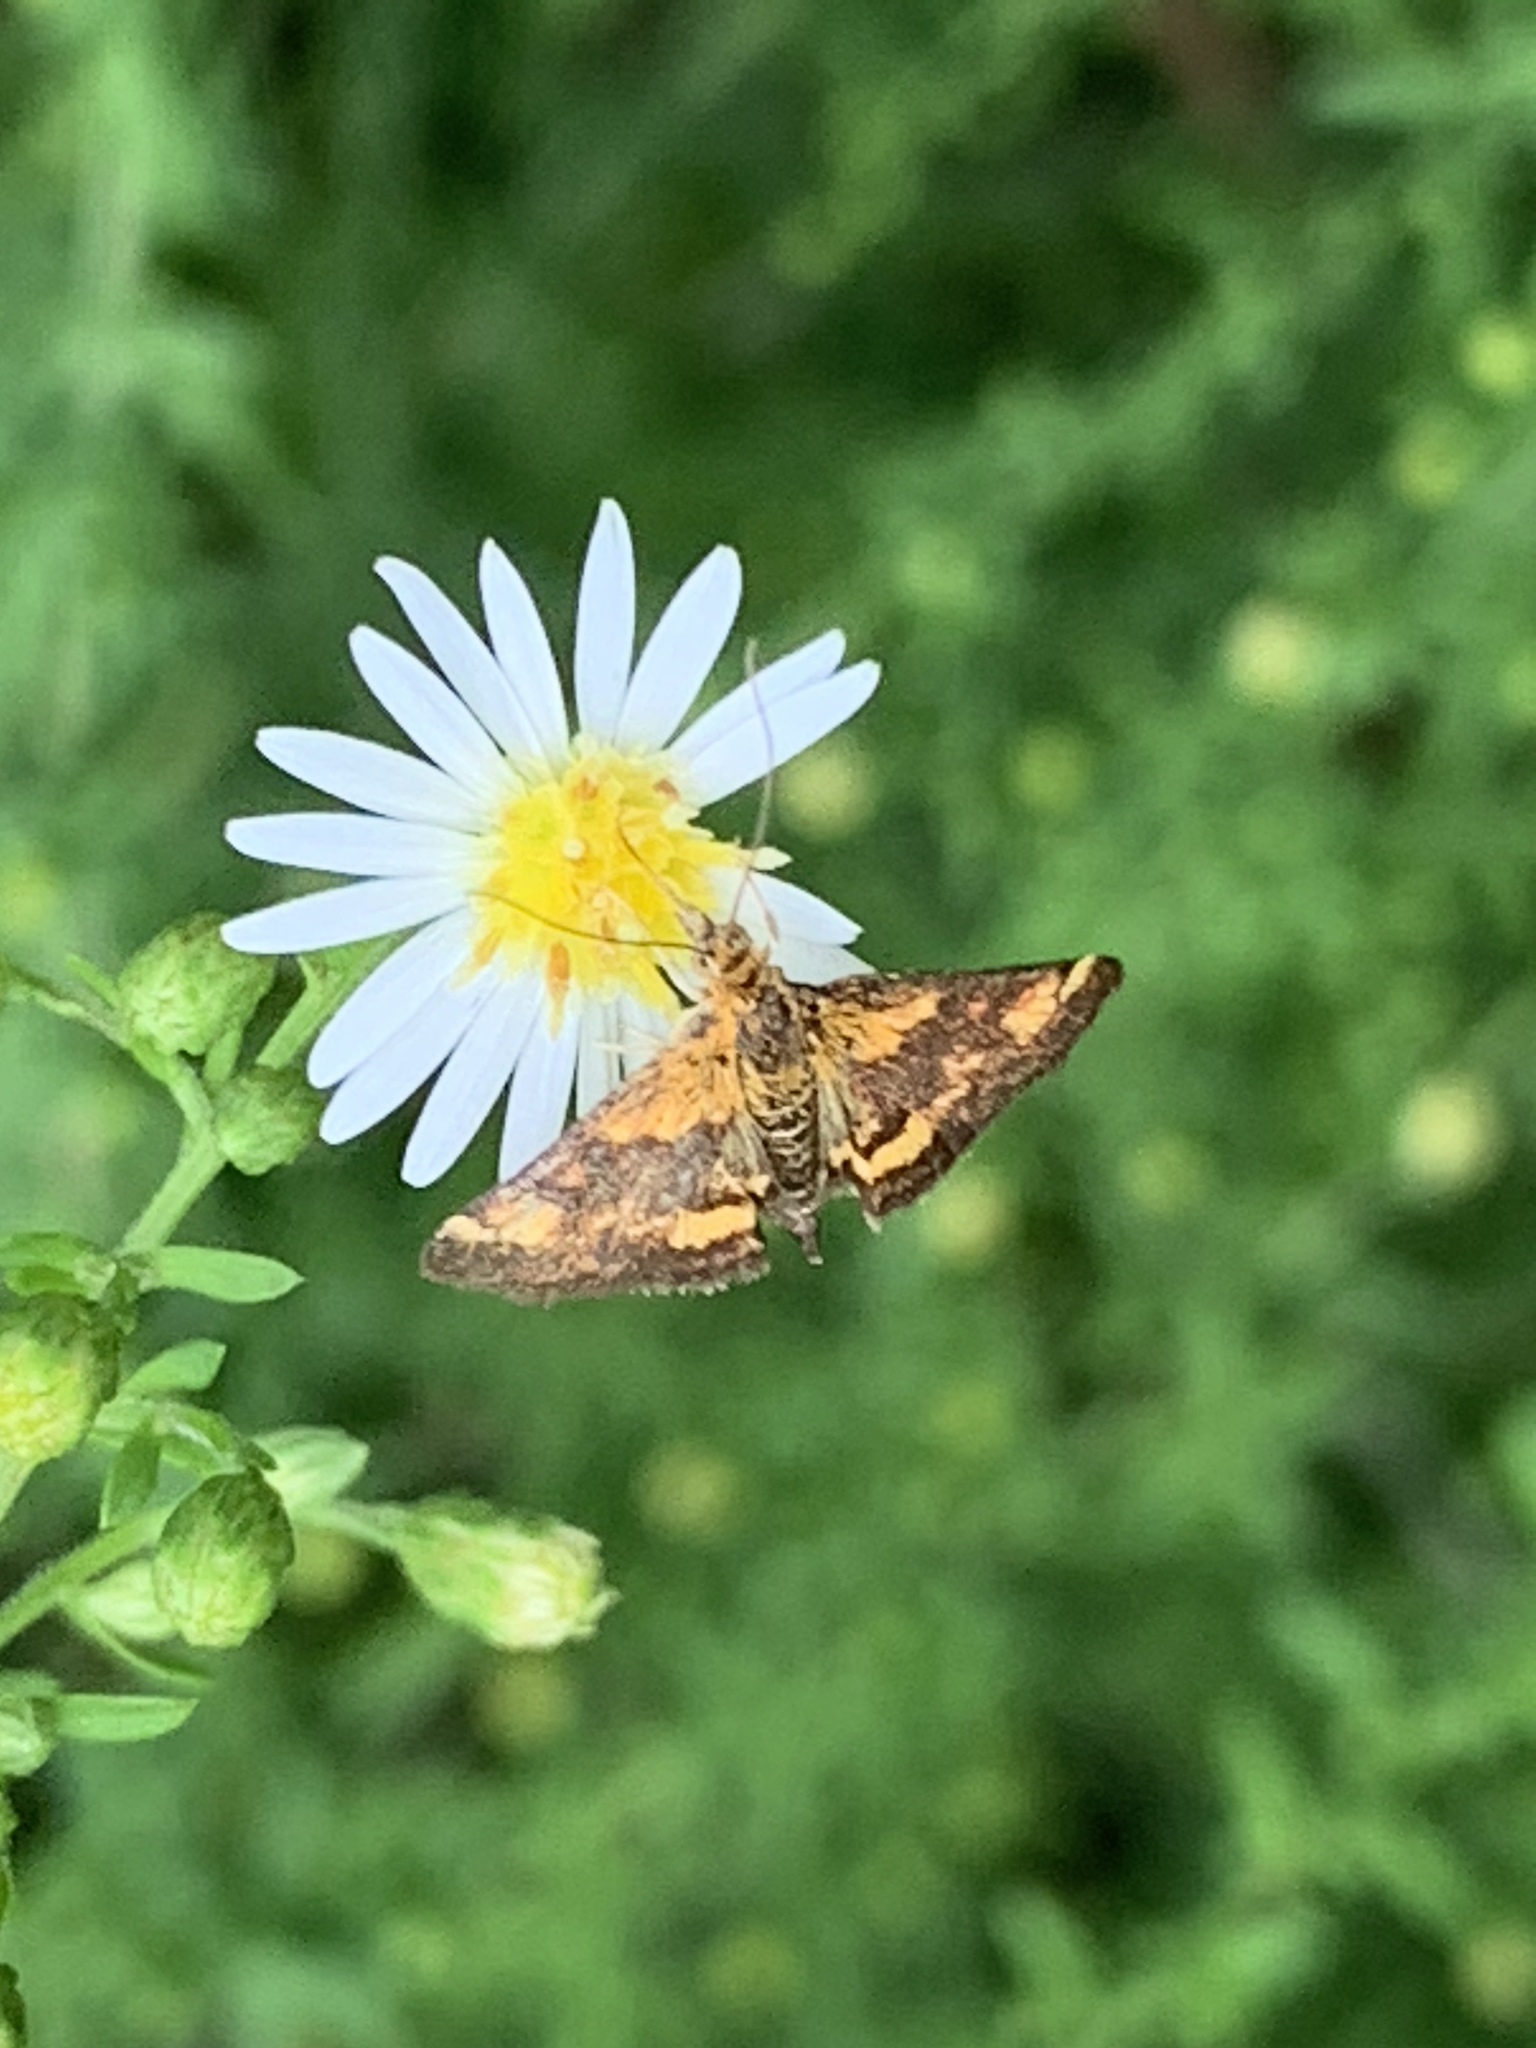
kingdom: Animalia
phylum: Arthropoda
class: Insecta
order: Lepidoptera
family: Crambidae
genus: Pyrausta
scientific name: Pyrausta orphisalis
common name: Orange mint moth
